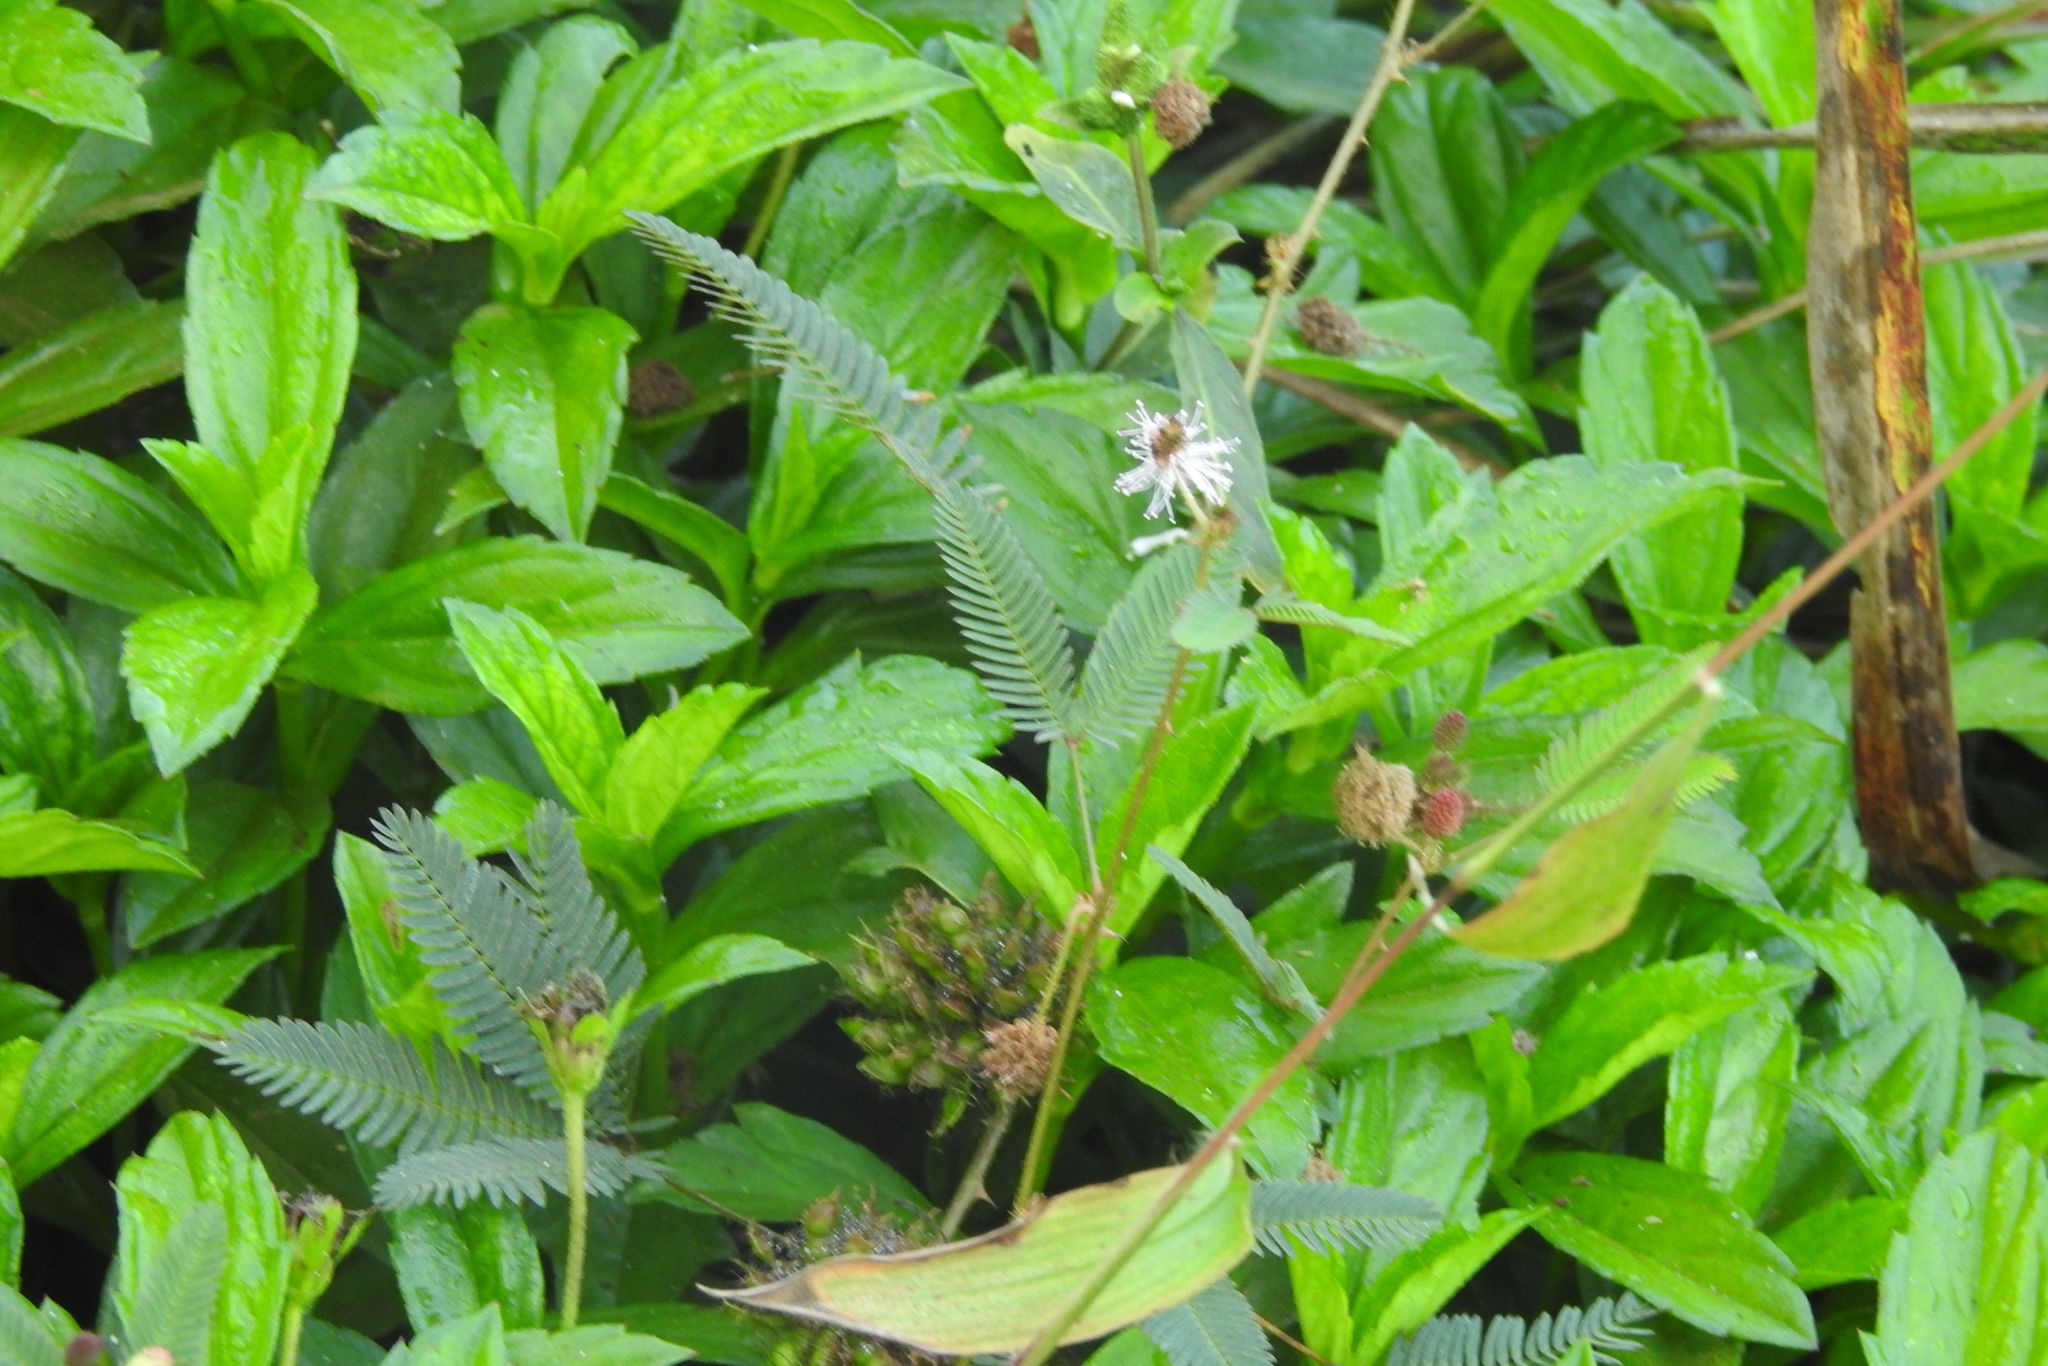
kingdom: Plantae
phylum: Tracheophyta
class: Magnoliopsida
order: Fabales
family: Fabaceae
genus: Mimosa
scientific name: Mimosa pudica
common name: Sensitive plant
